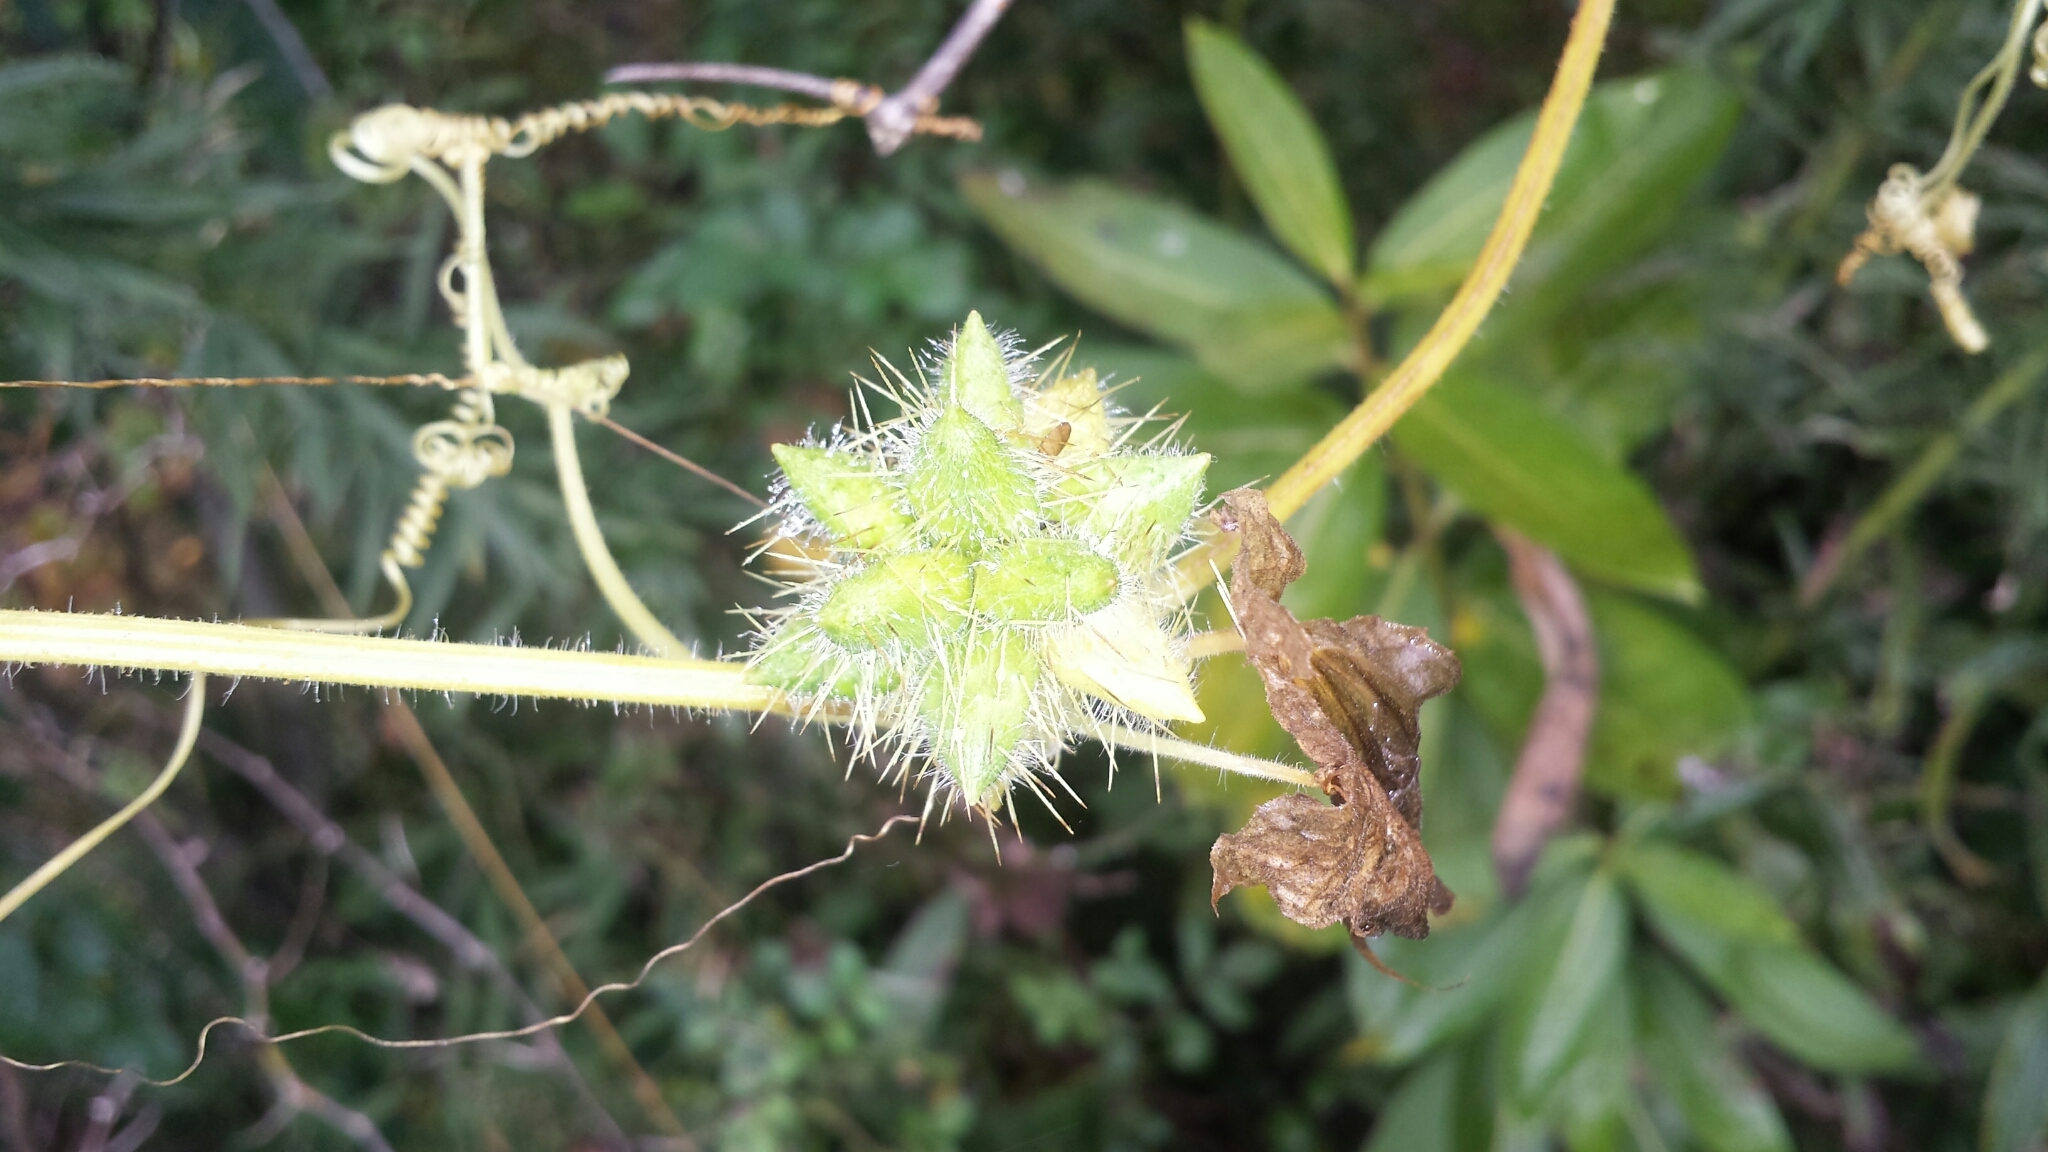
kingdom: Plantae
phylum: Tracheophyta
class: Magnoliopsida
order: Cucurbitales
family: Cucurbitaceae
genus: Sicyos
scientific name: Sicyos angulatus
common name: Angled burr cucumber
